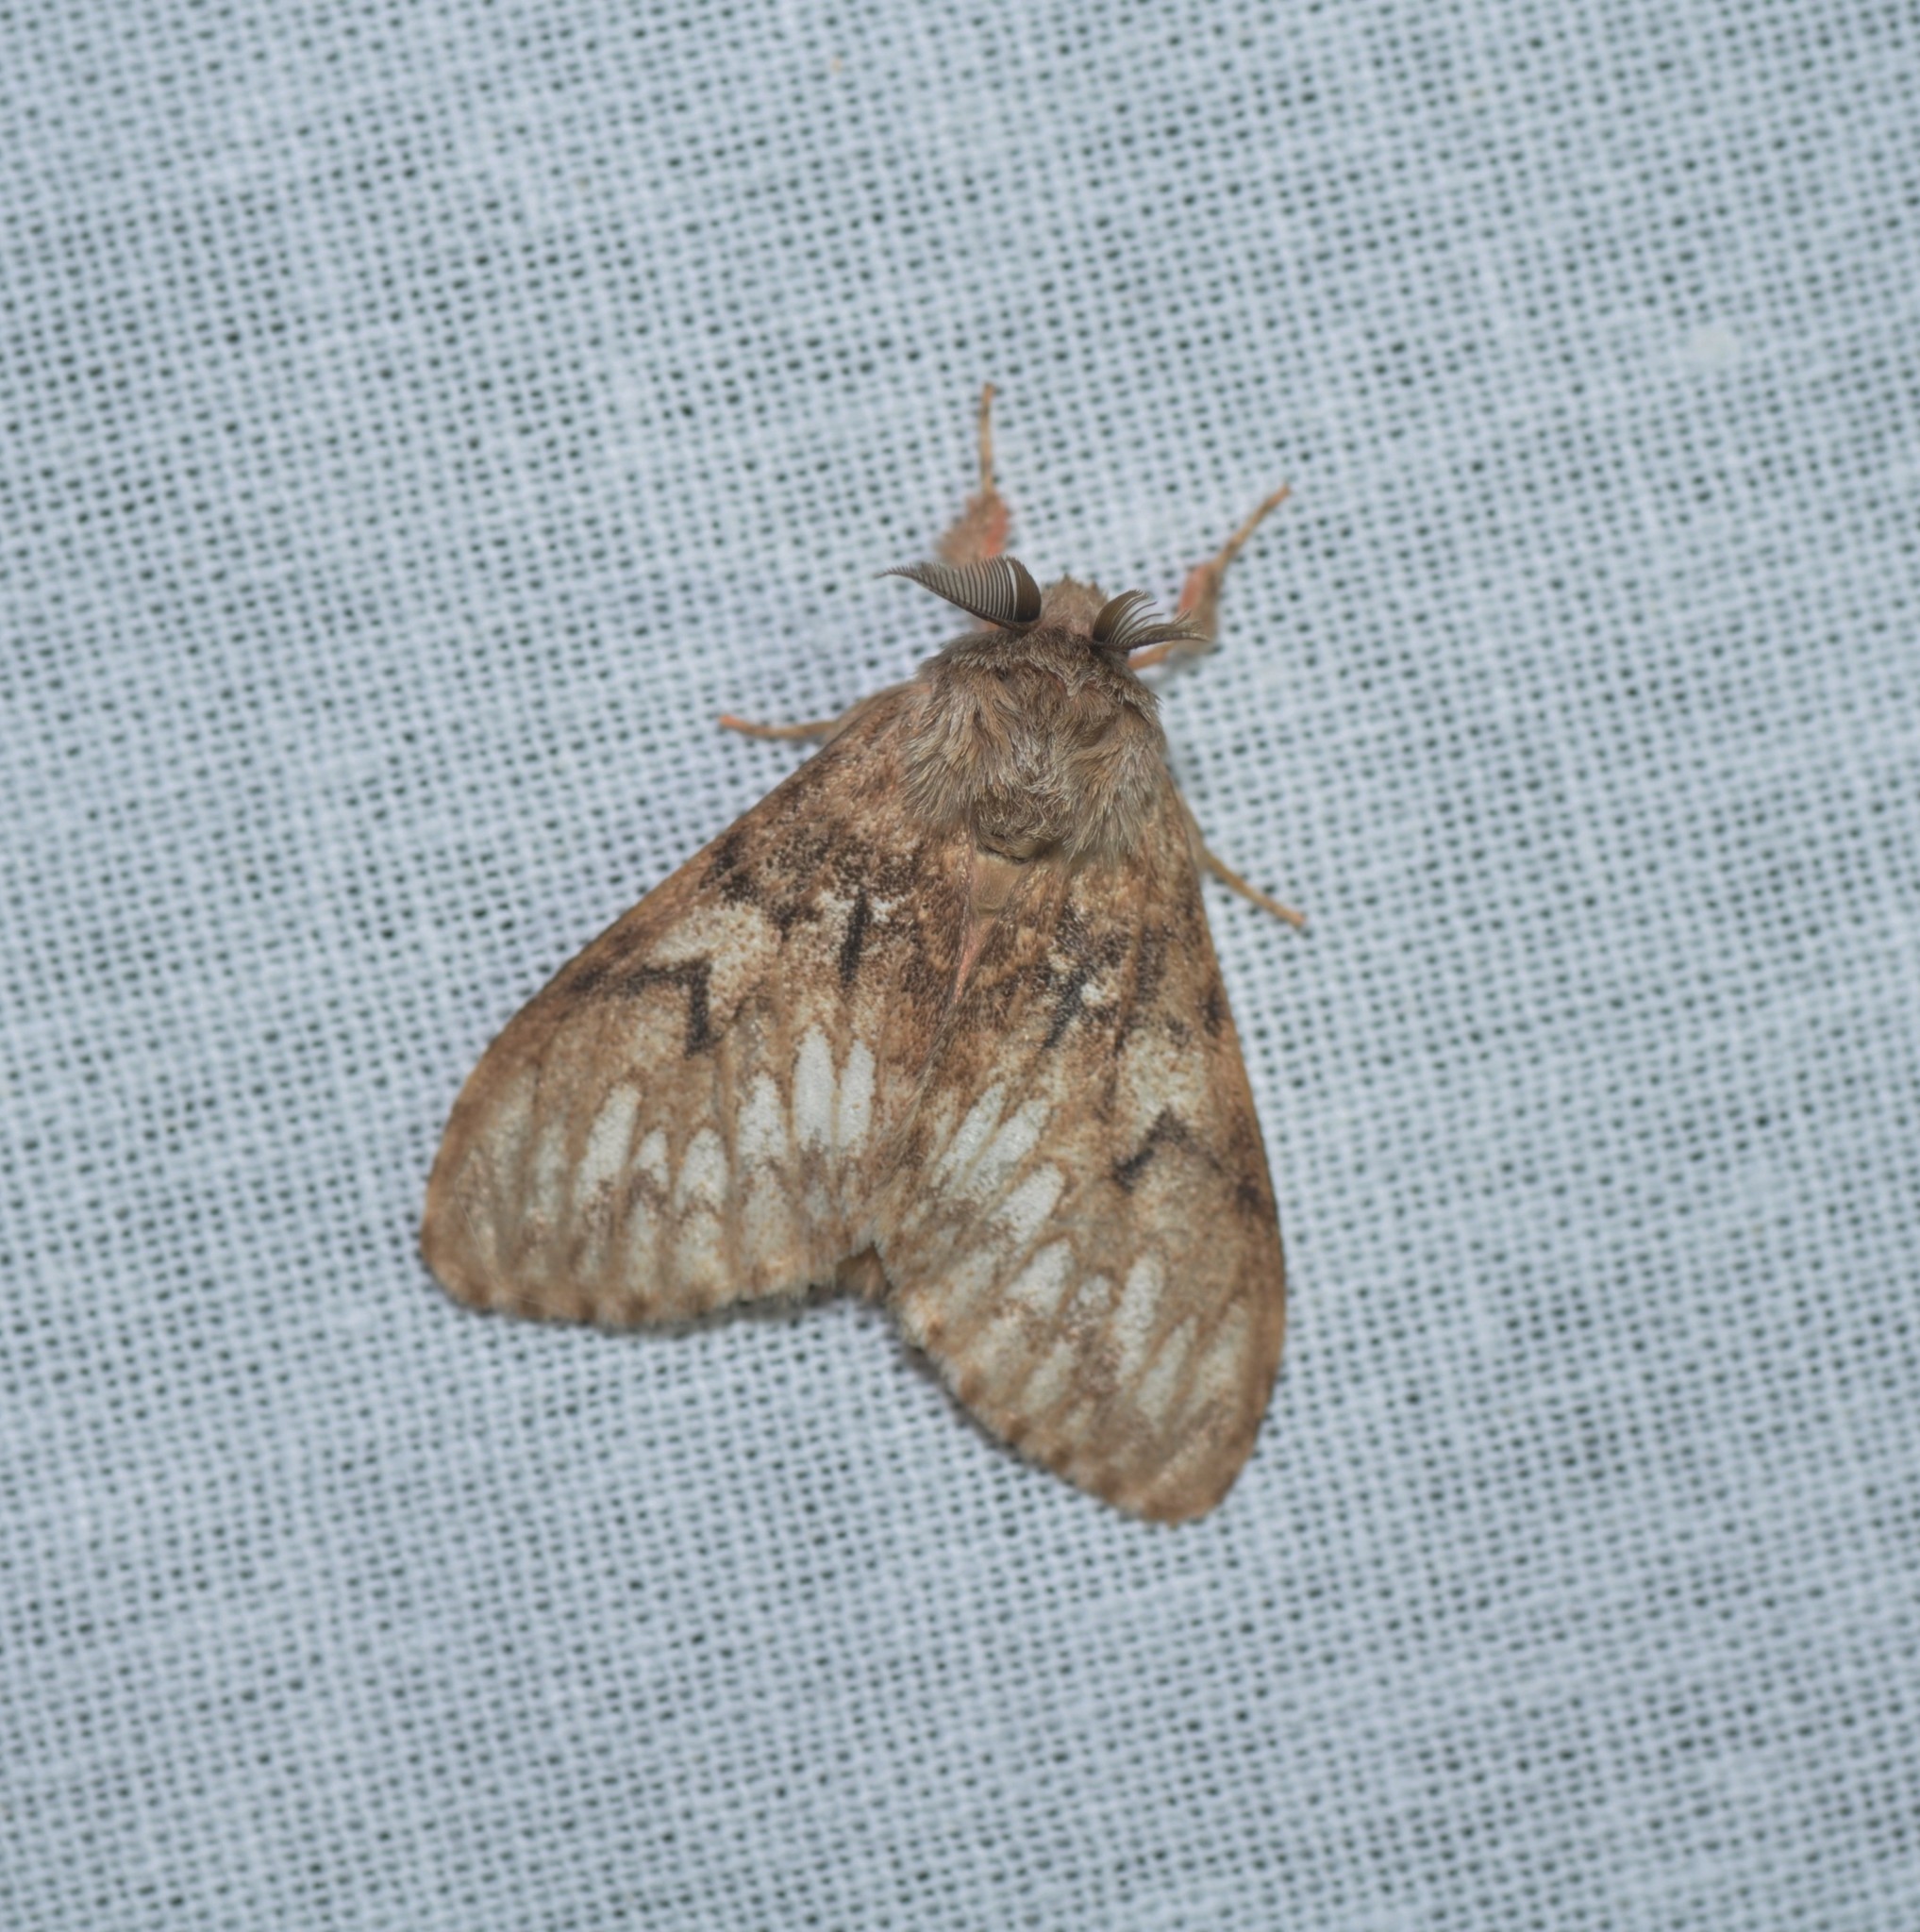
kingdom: Animalia
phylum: Arthropoda
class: Insecta
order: Lepidoptera
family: Erebidae
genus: Lymantria
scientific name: Lymantria
